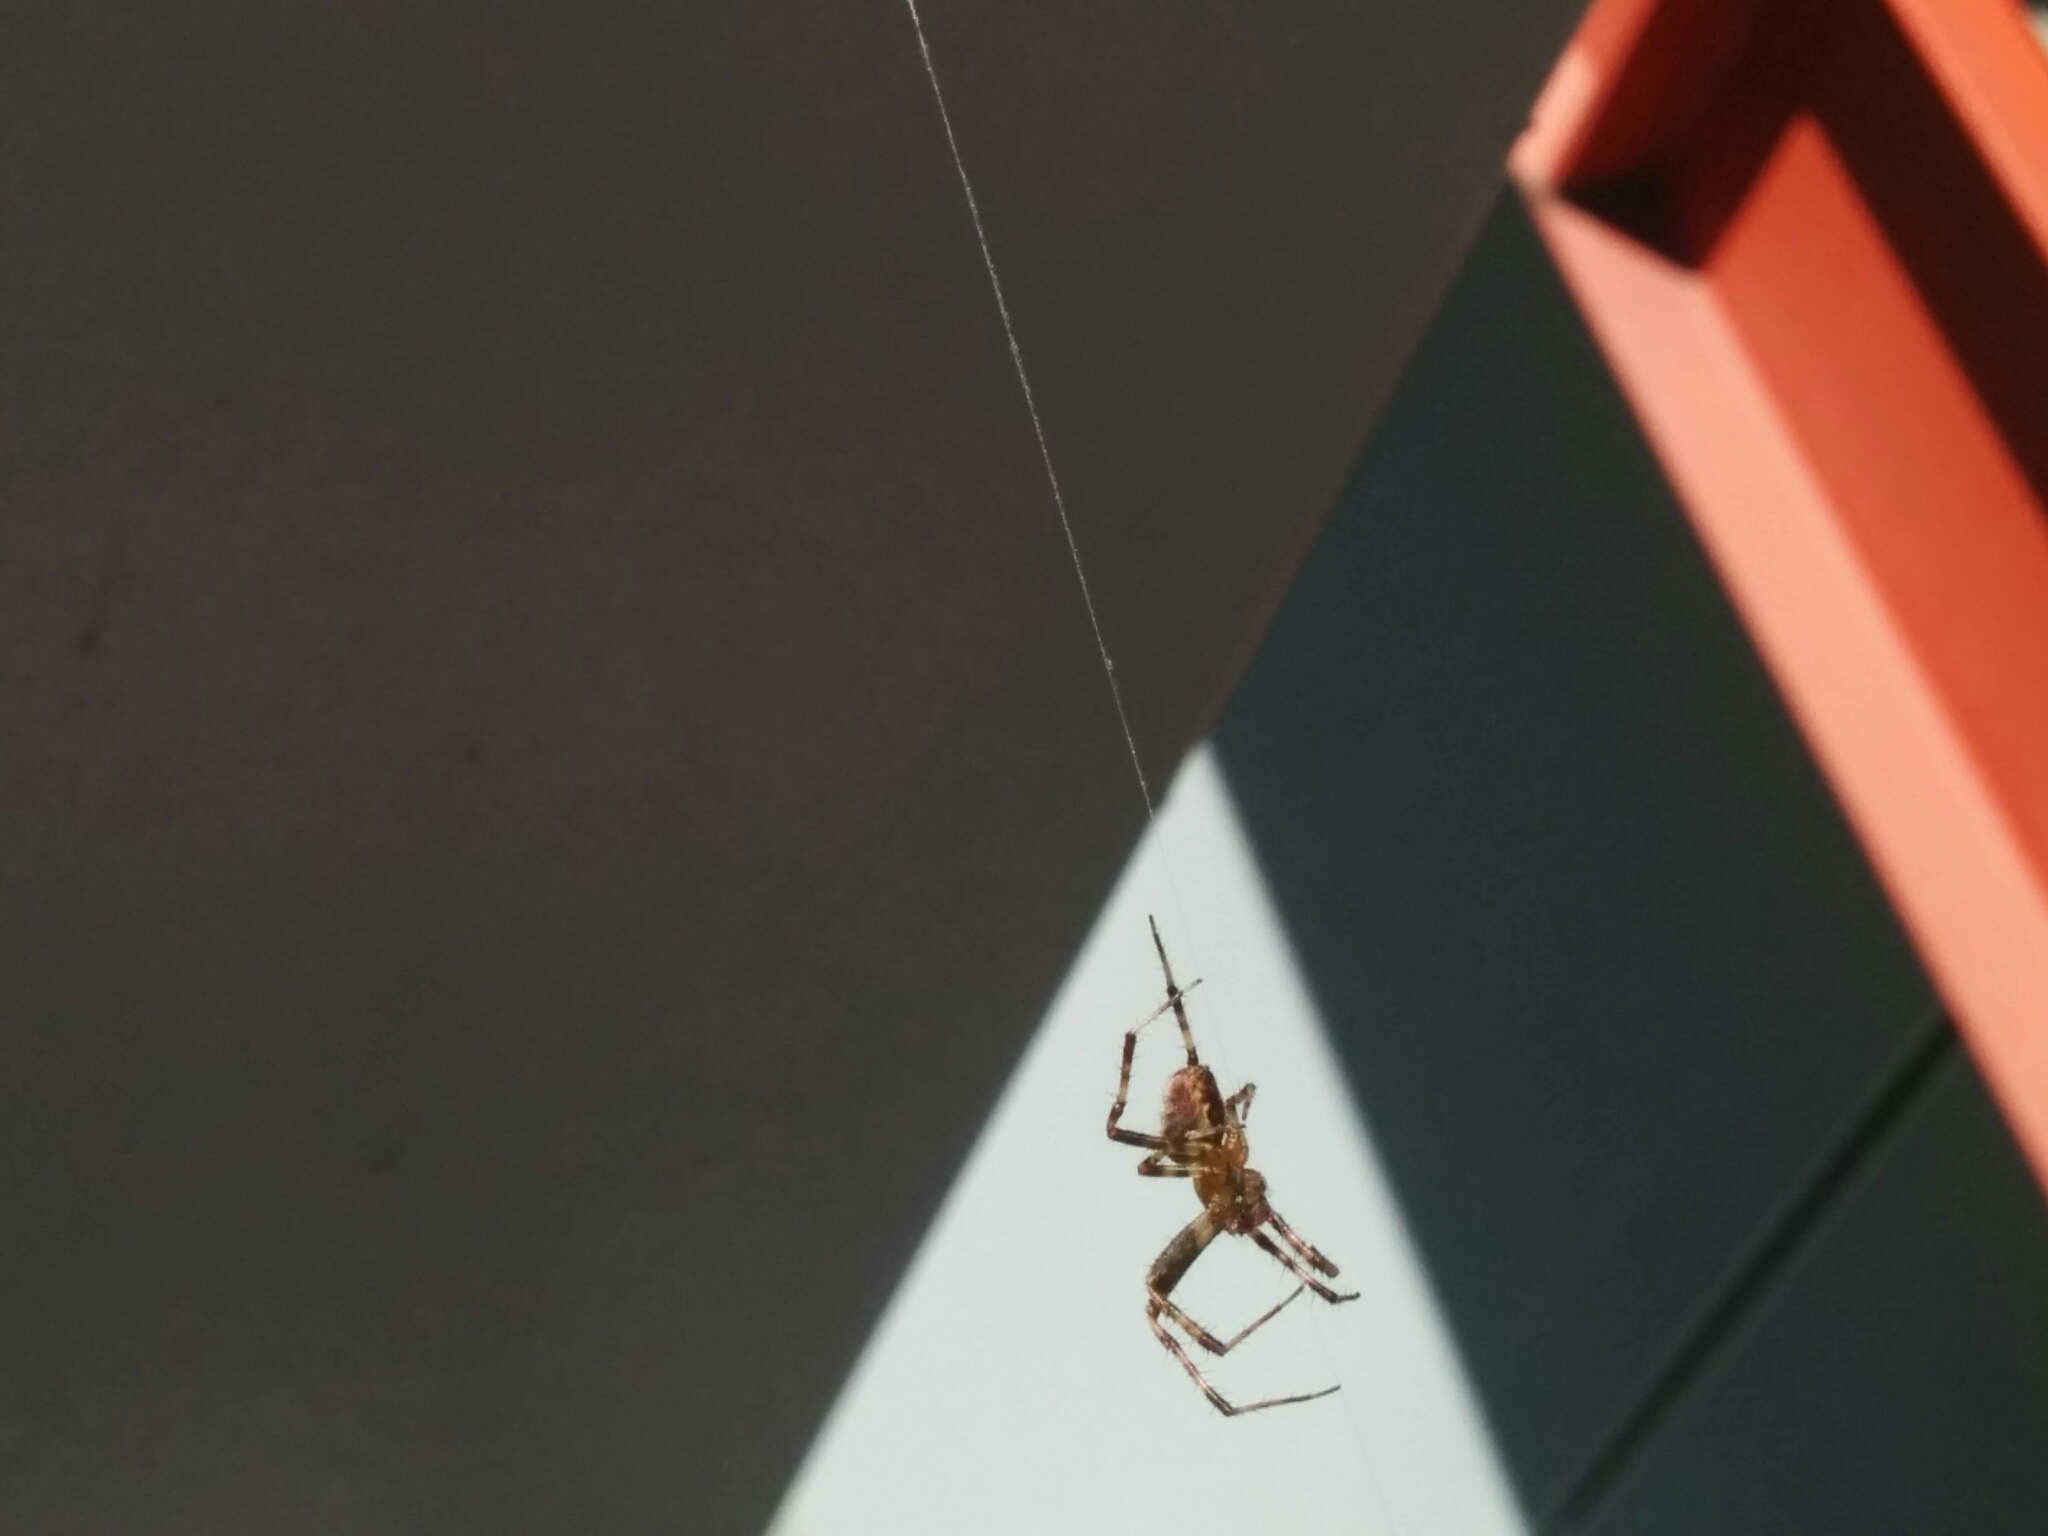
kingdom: Animalia
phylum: Arthropoda
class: Arachnida
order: Araneae
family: Araneidae
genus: Araneus
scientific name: Araneus diadematus
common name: Cross orbweaver
